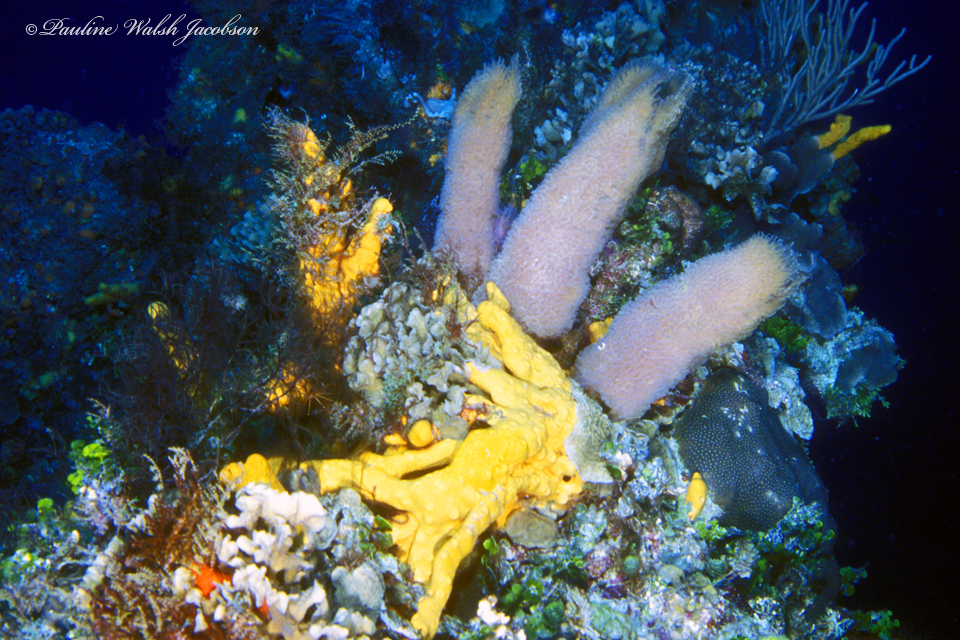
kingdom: Animalia
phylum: Porifera
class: Demospongiae
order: Haplosclerida
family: Callyspongiidae
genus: Callyspongia
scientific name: Callyspongia plicifera
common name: Azure vase sponge
